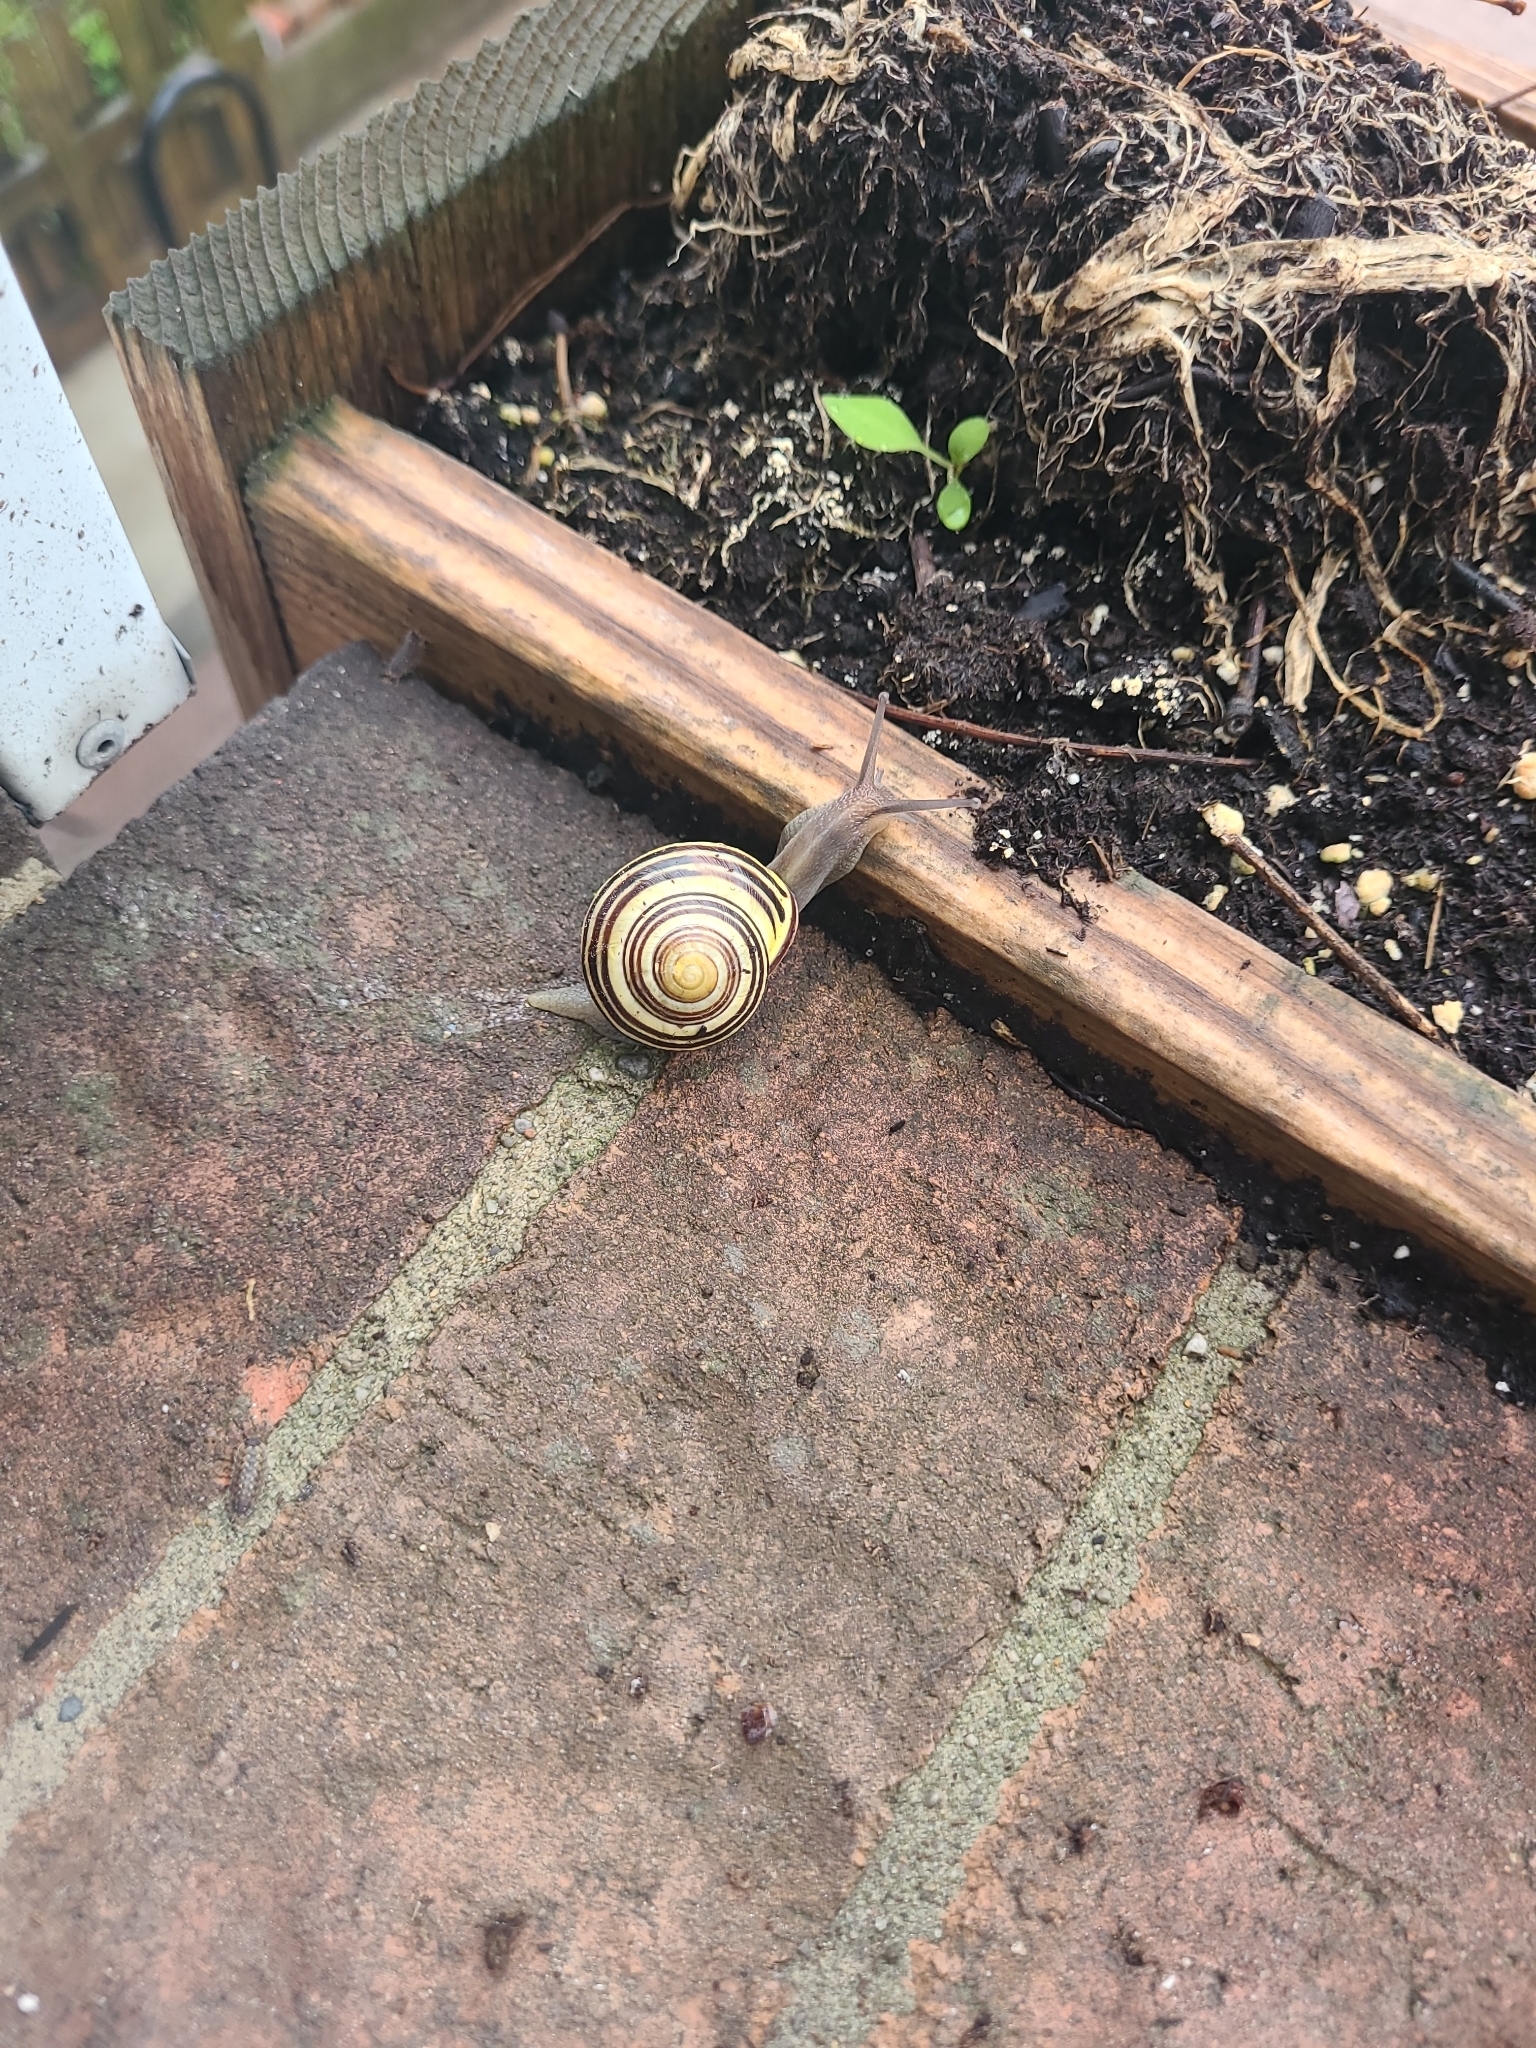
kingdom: Animalia
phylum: Mollusca
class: Gastropoda
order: Stylommatophora
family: Helicidae
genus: Cepaea
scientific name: Cepaea nemoralis
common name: Grovesnail
